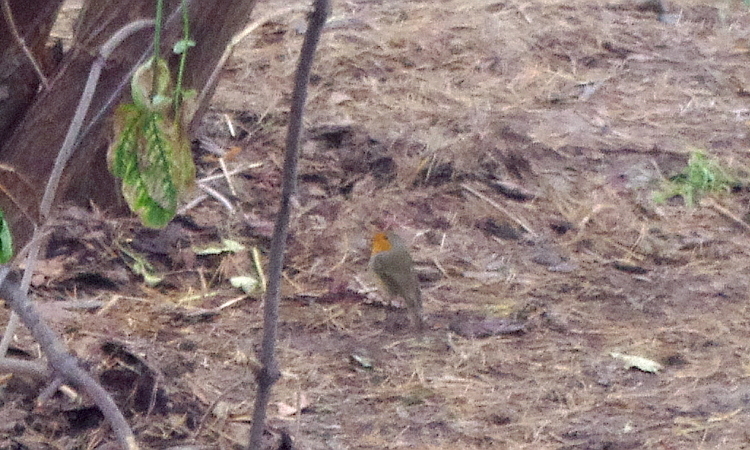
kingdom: Animalia
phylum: Chordata
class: Aves
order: Passeriformes
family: Muscicapidae
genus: Erithacus
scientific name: Erithacus rubecula
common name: European robin
